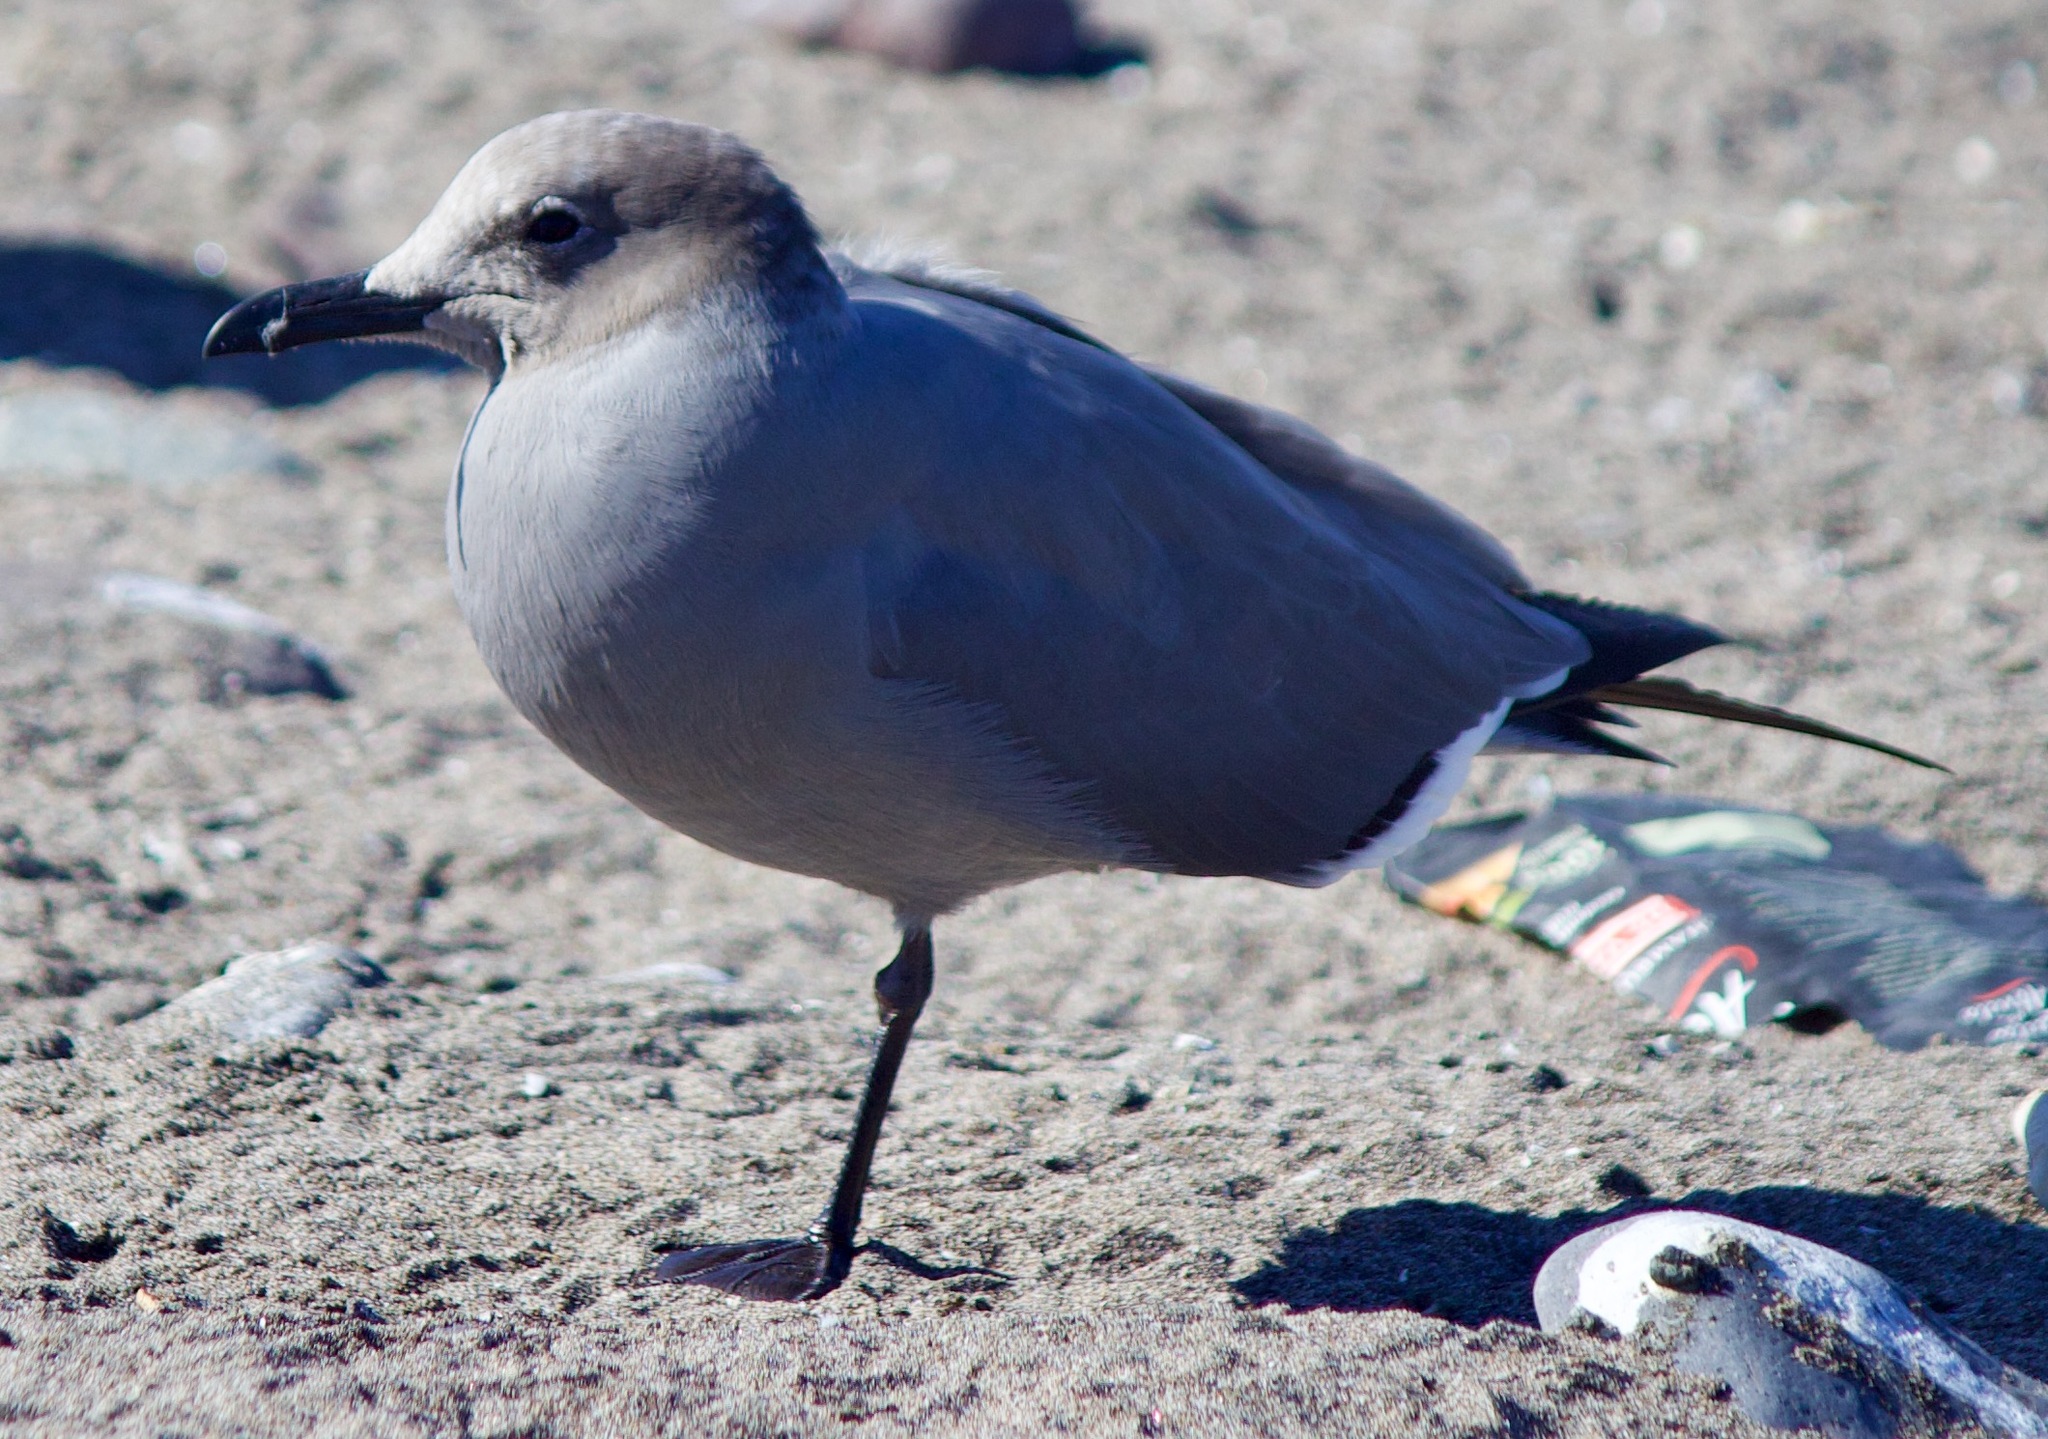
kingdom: Animalia
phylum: Chordata
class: Aves
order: Charadriiformes
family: Laridae
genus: Leucophaeus
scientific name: Leucophaeus modestus
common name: Gray gull
